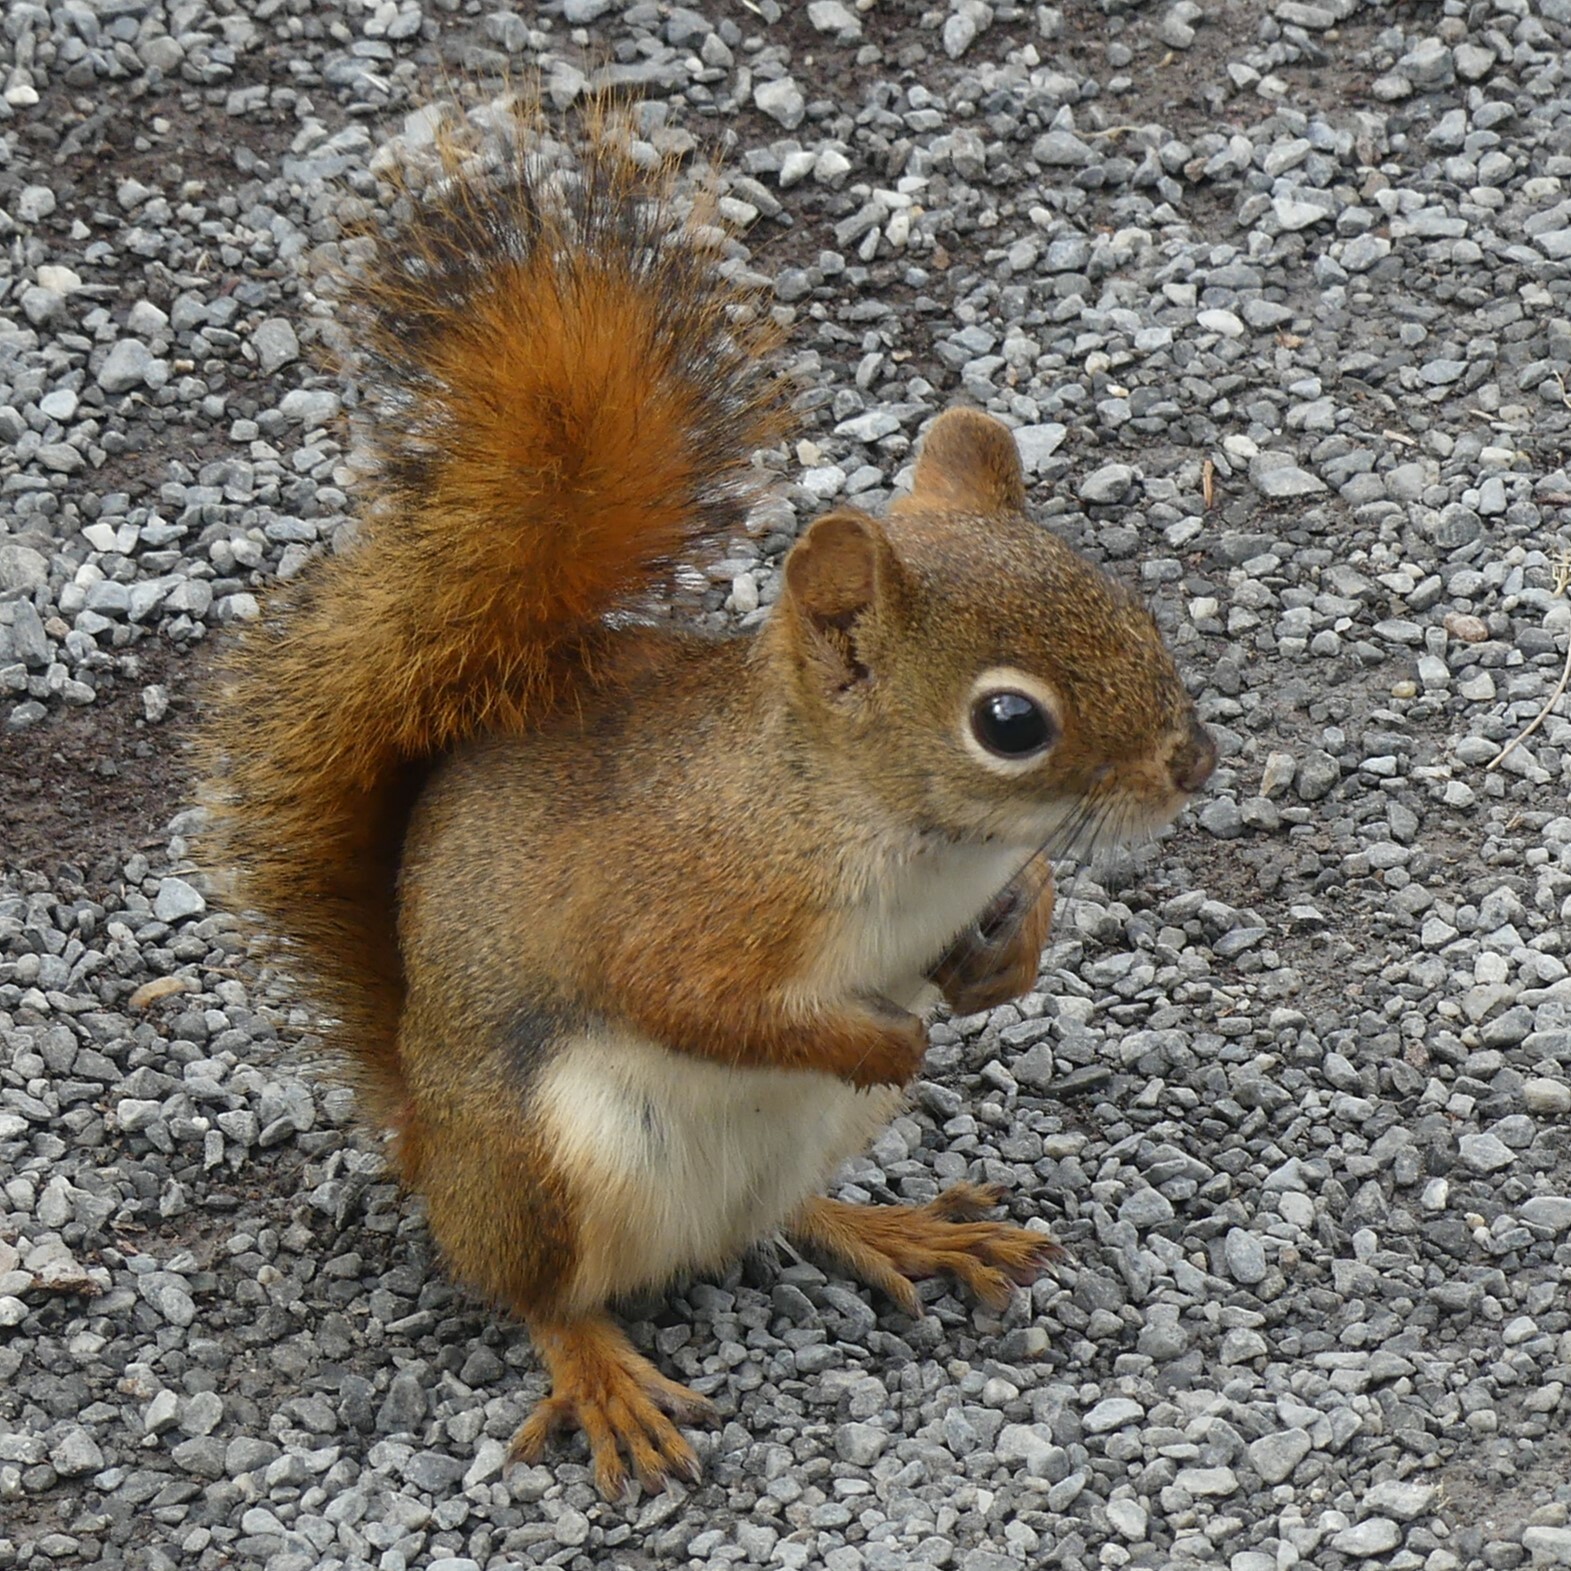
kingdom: Animalia
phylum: Chordata
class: Mammalia
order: Rodentia
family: Sciuridae
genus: Tamiasciurus
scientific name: Tamiasciurus hudsonicus
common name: Red squirrel
